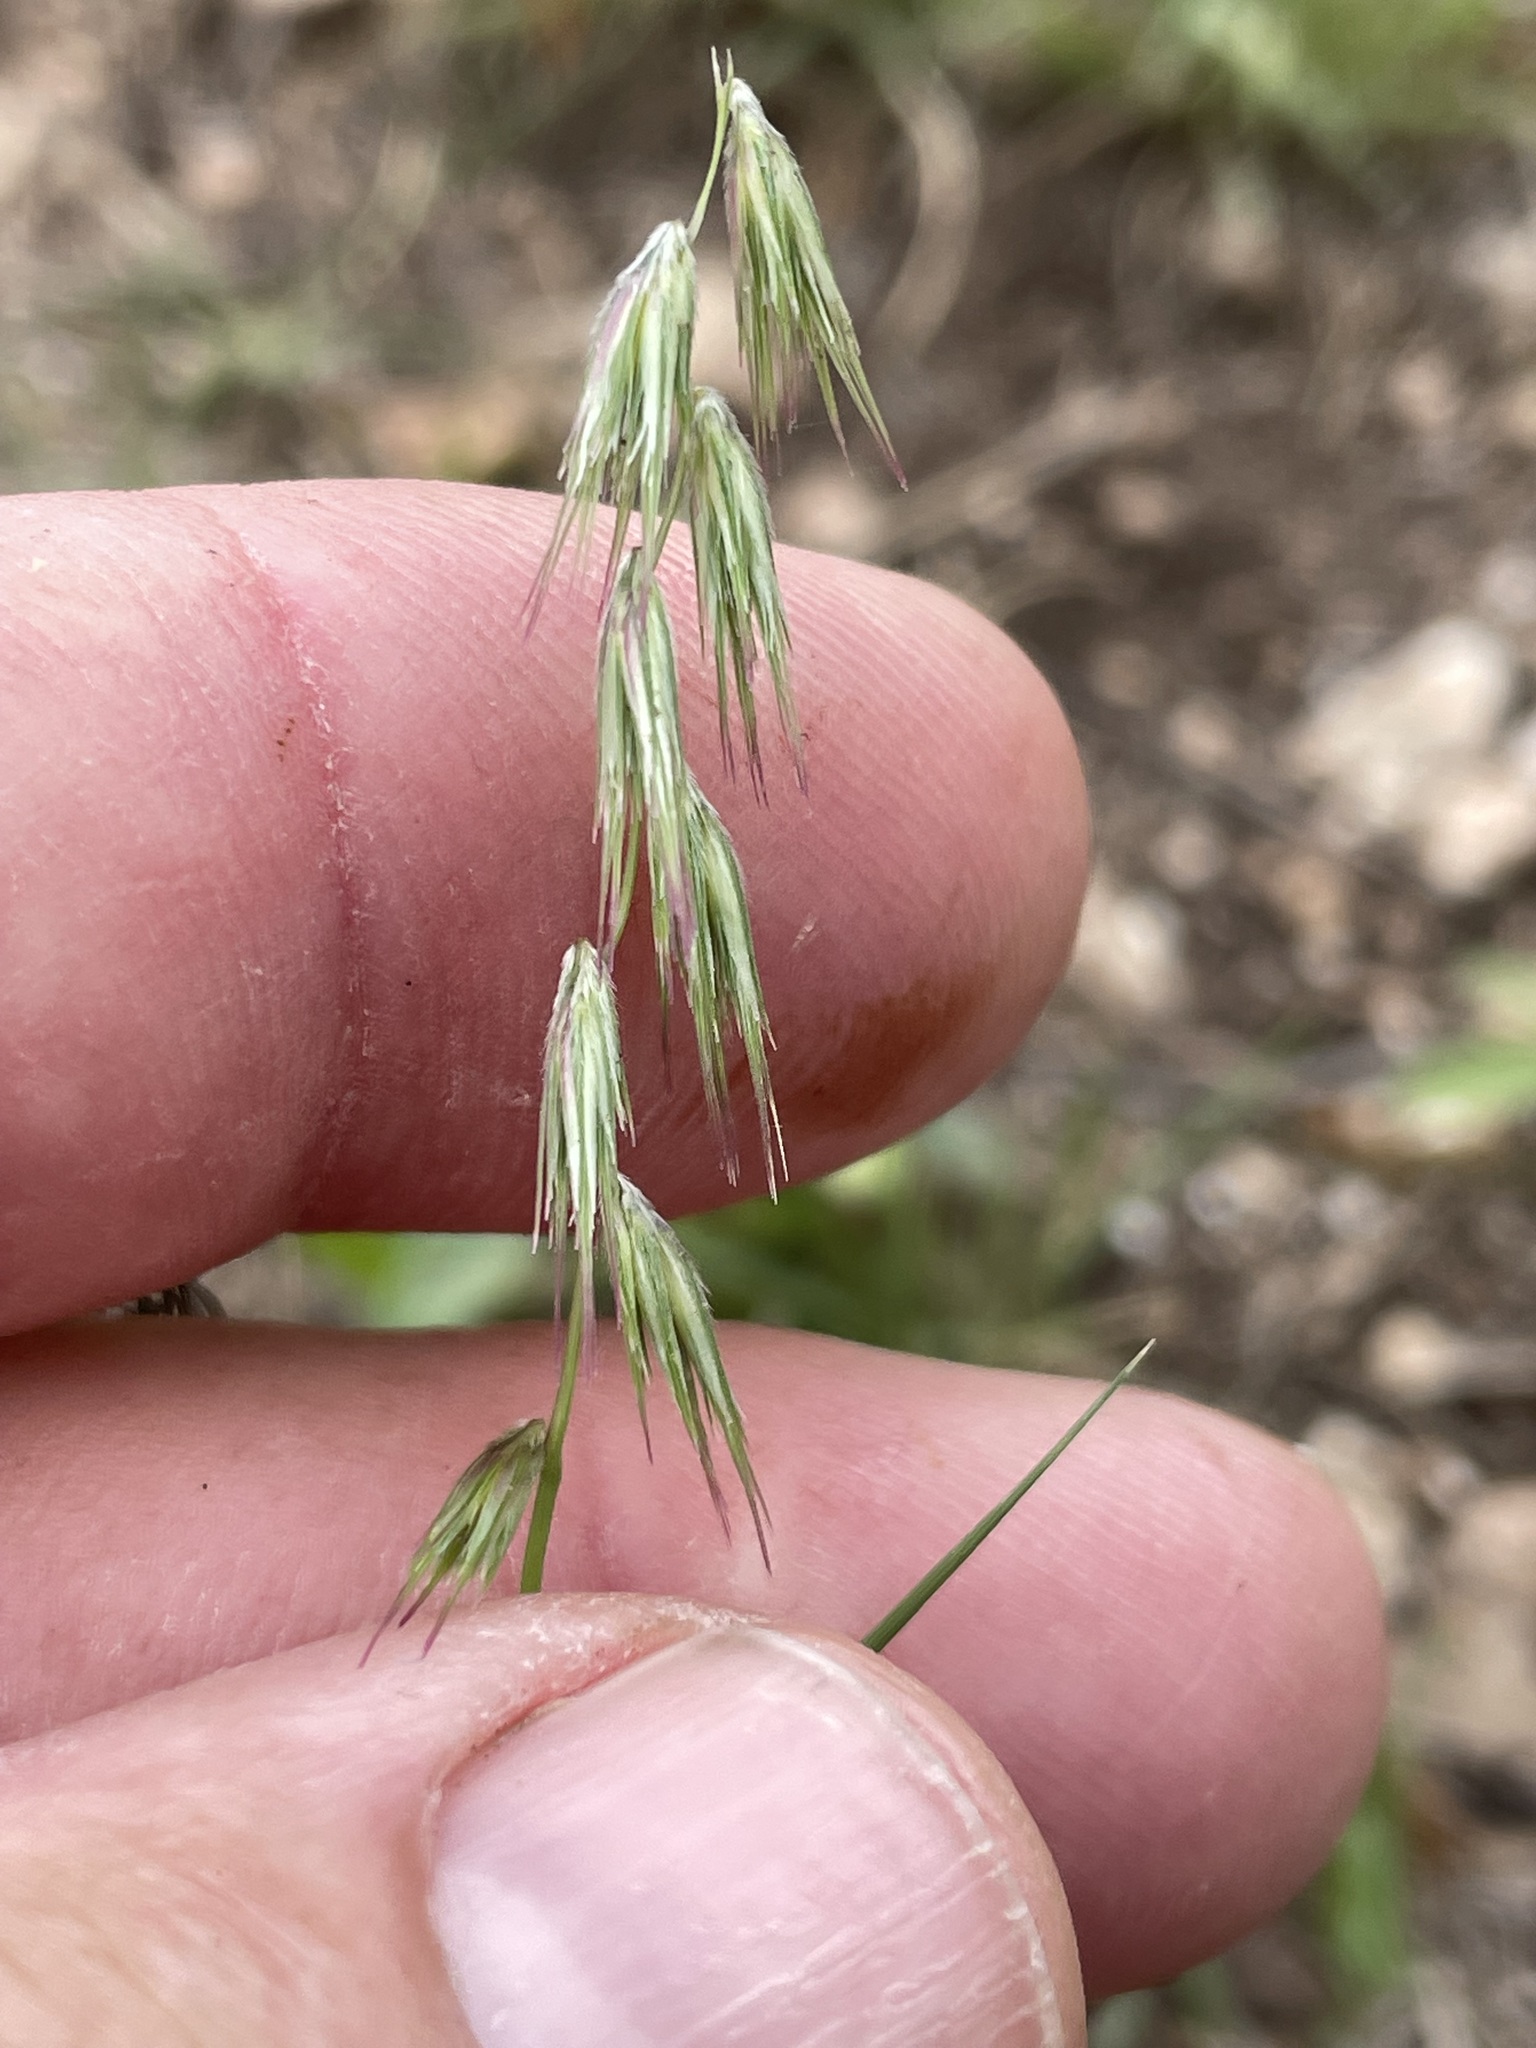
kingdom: Plantae
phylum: Tracheophyta
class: Liliopsida
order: Poales
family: Poaceae
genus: Bouteloua
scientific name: Bouteloua rigidiseta
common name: Texas grama
